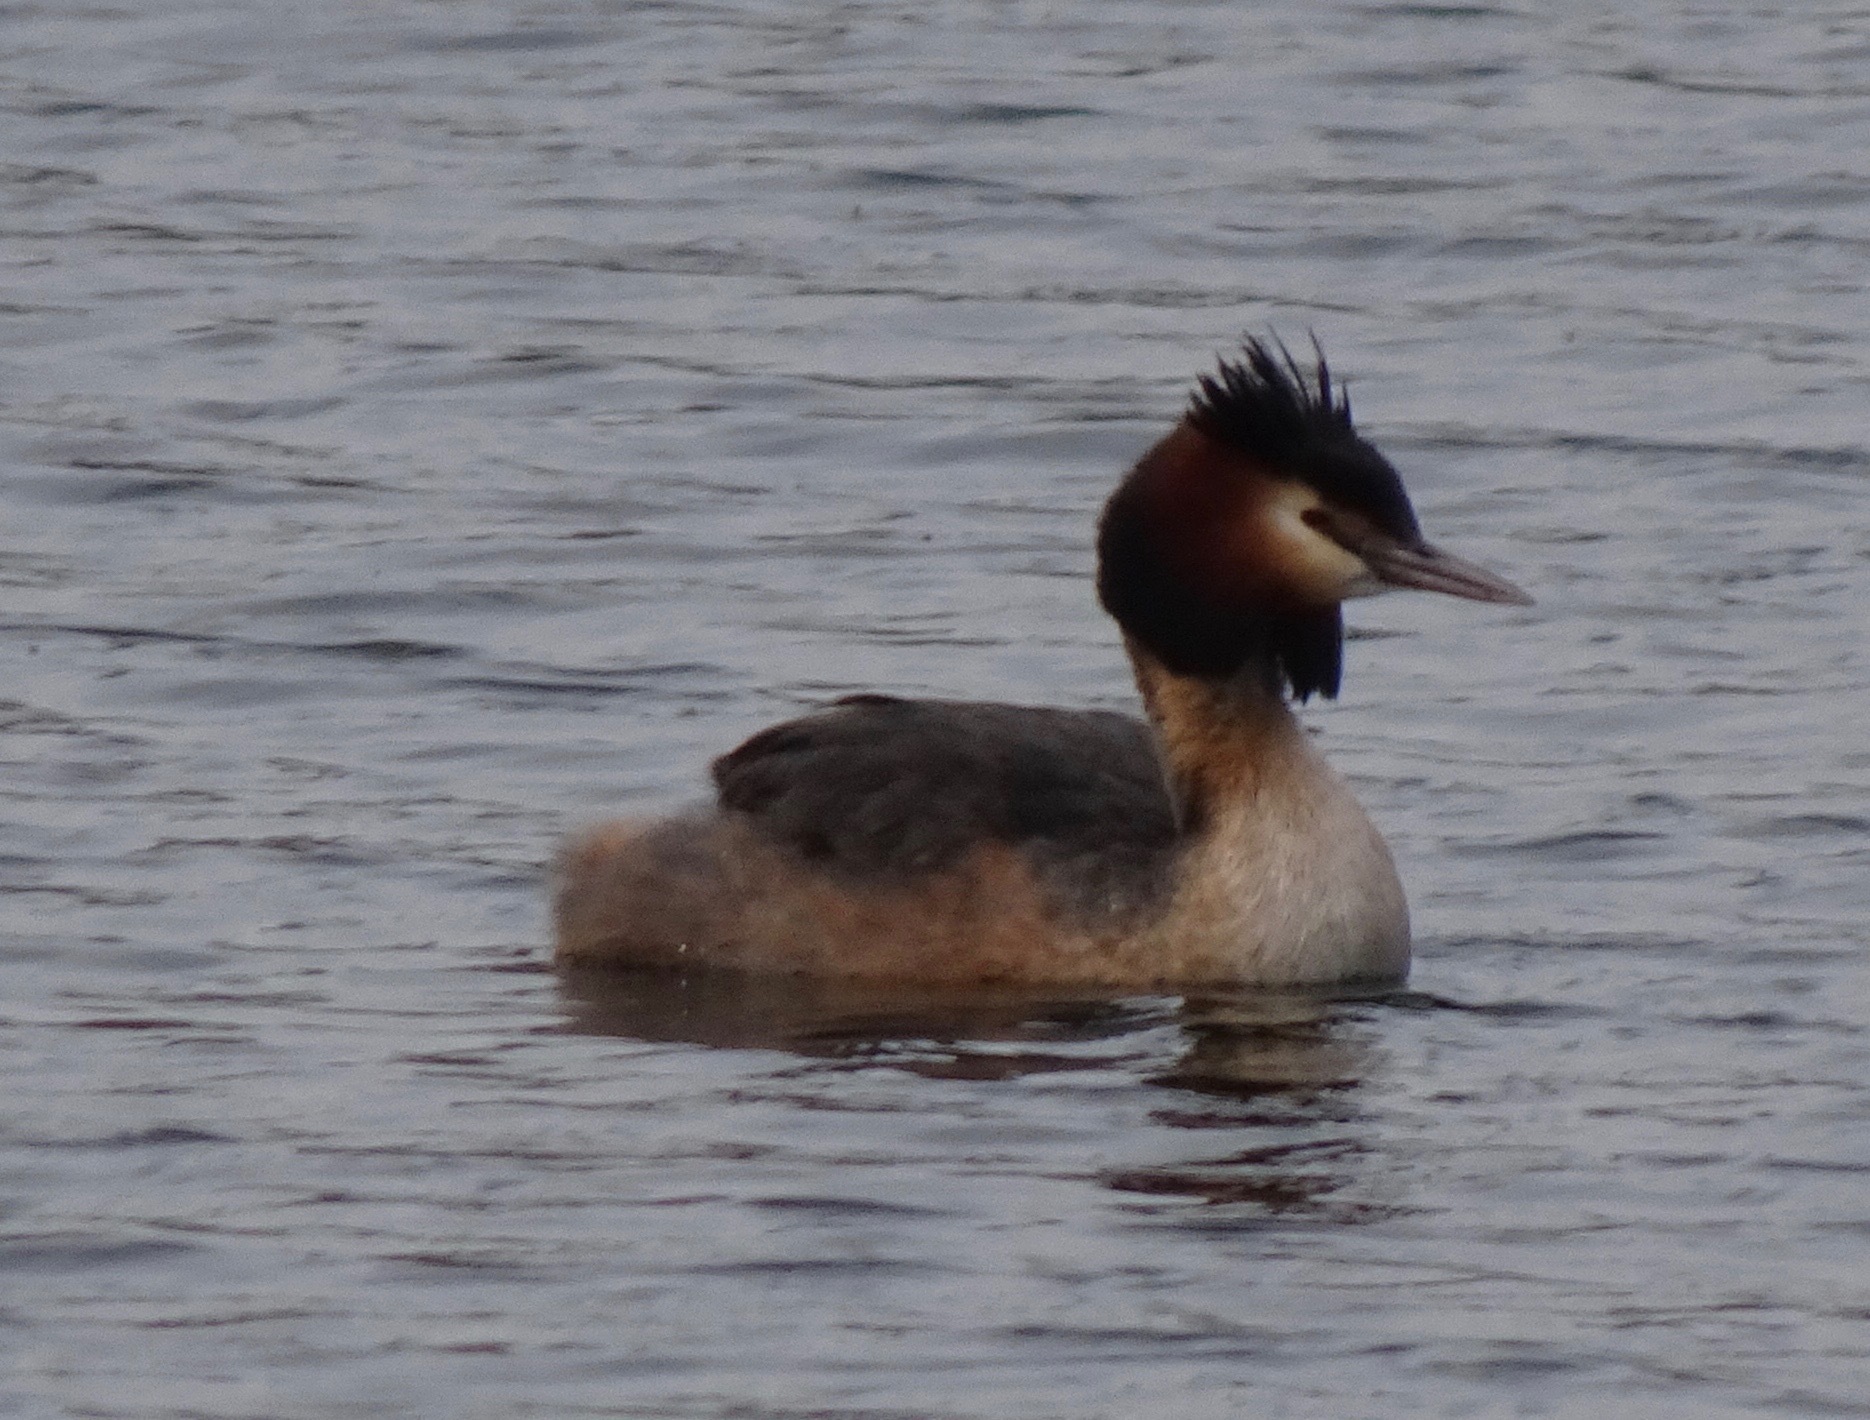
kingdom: Animalia
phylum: Chordata
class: Aves
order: Podicipediformes
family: Podicipedidae
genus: Podiceps
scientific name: Podiceps cristatus
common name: Great crested grebe
